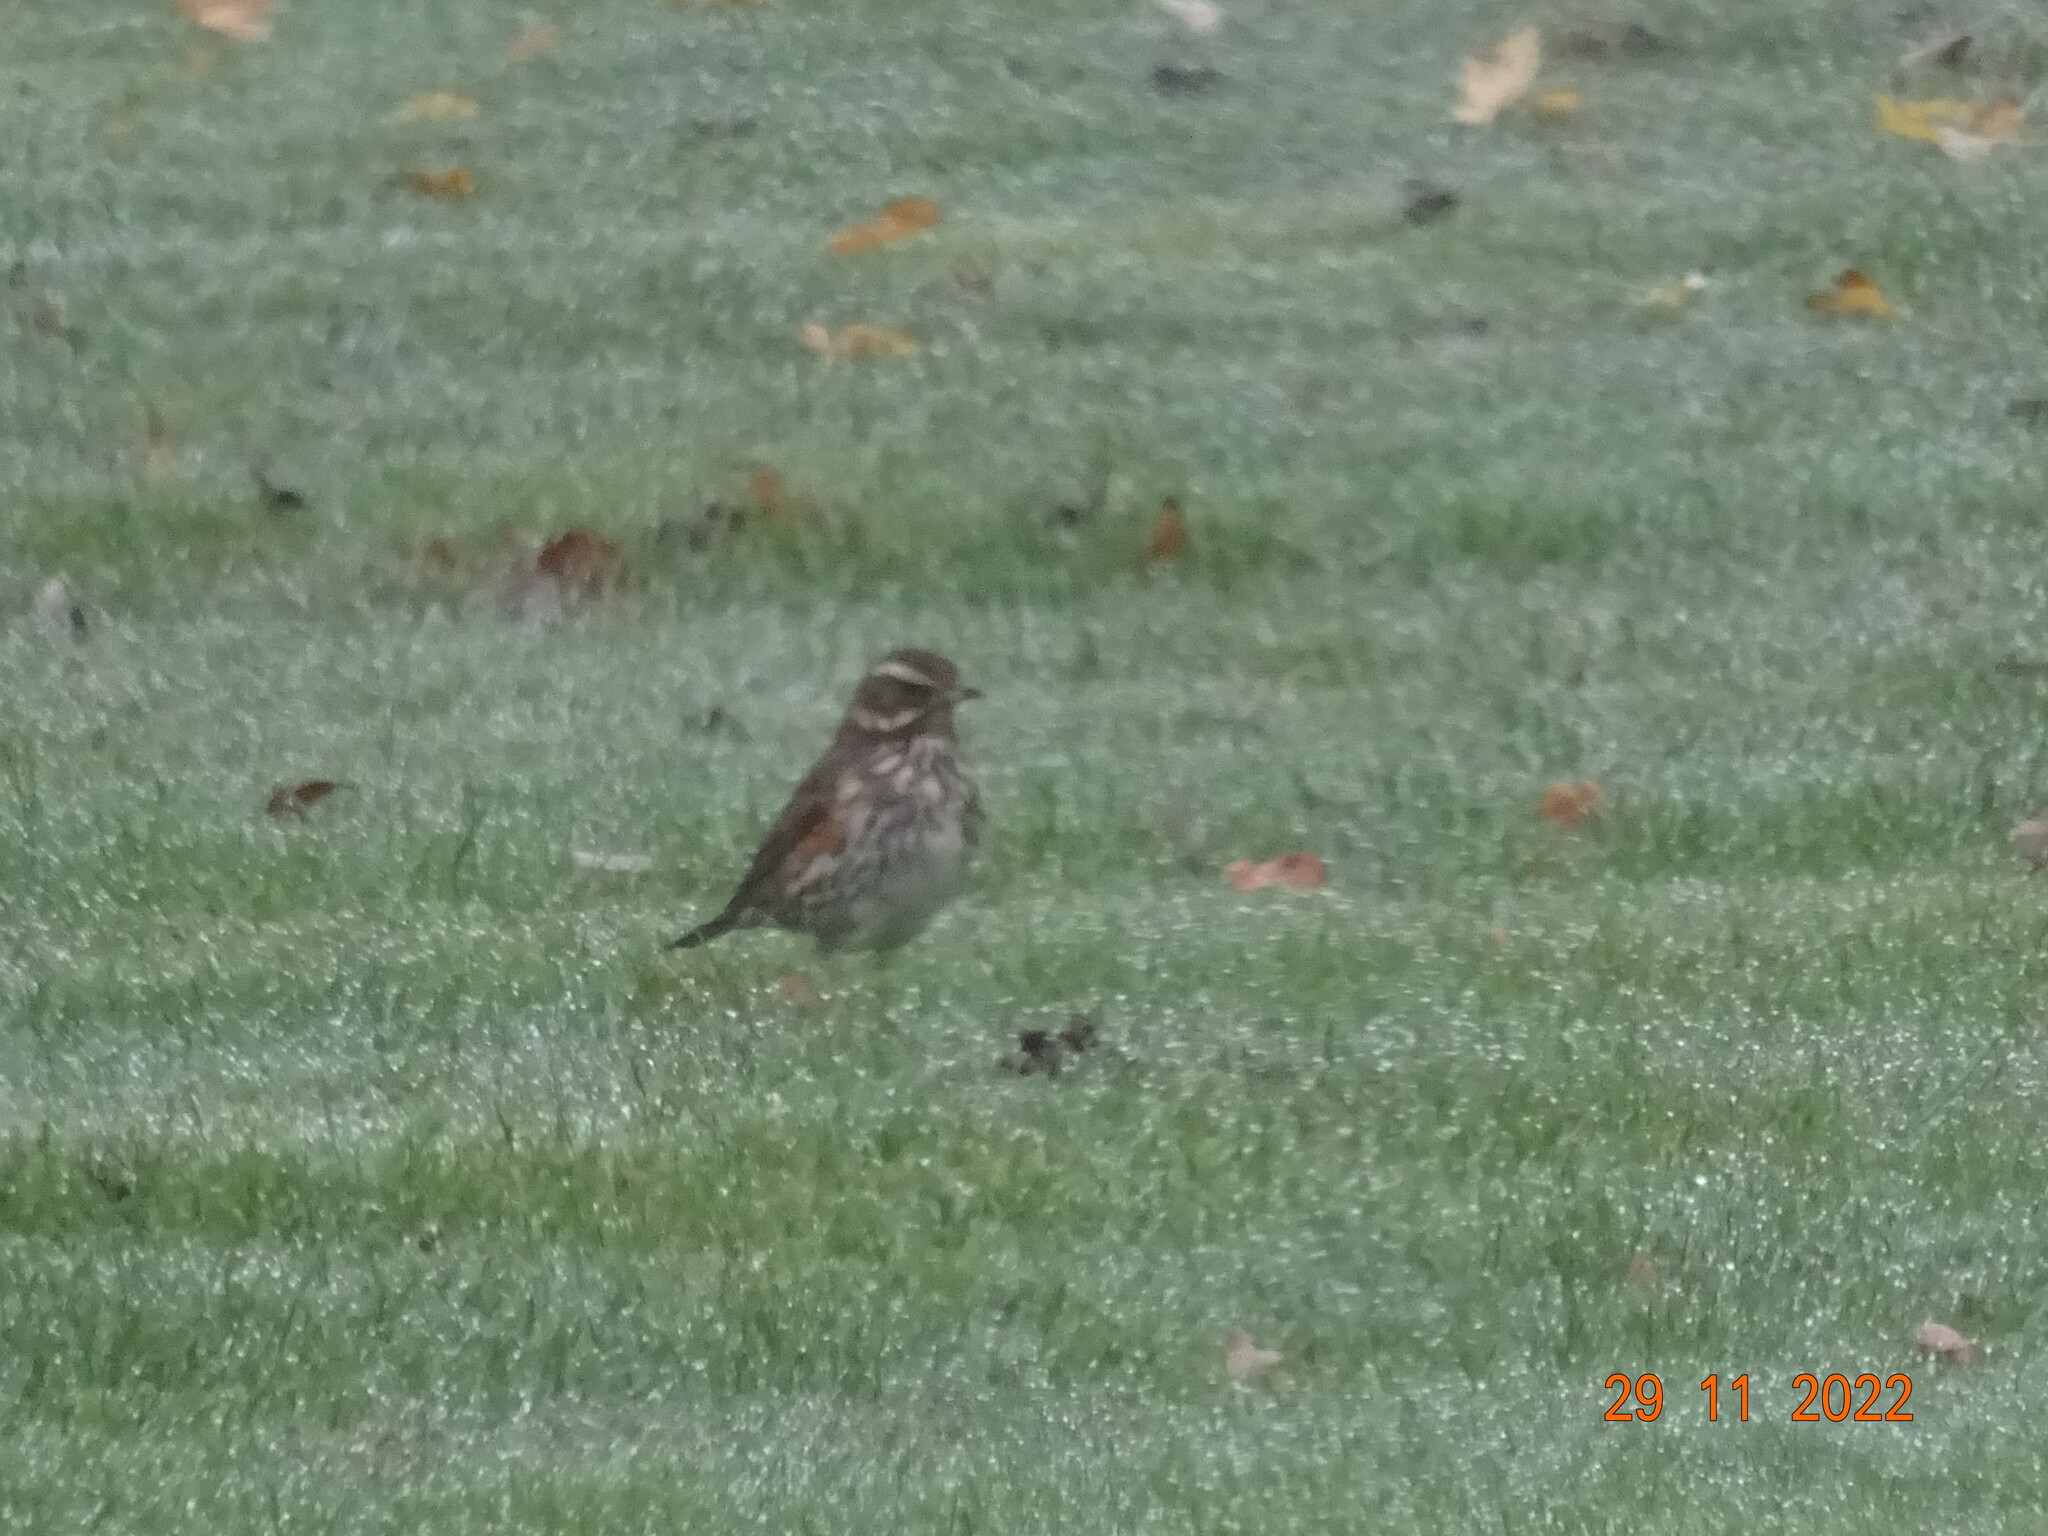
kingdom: Animalia
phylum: Chordata
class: Aves
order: Passeriformes
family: Turdidae
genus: Turdus
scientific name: Turdus iliacus
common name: Redwing
